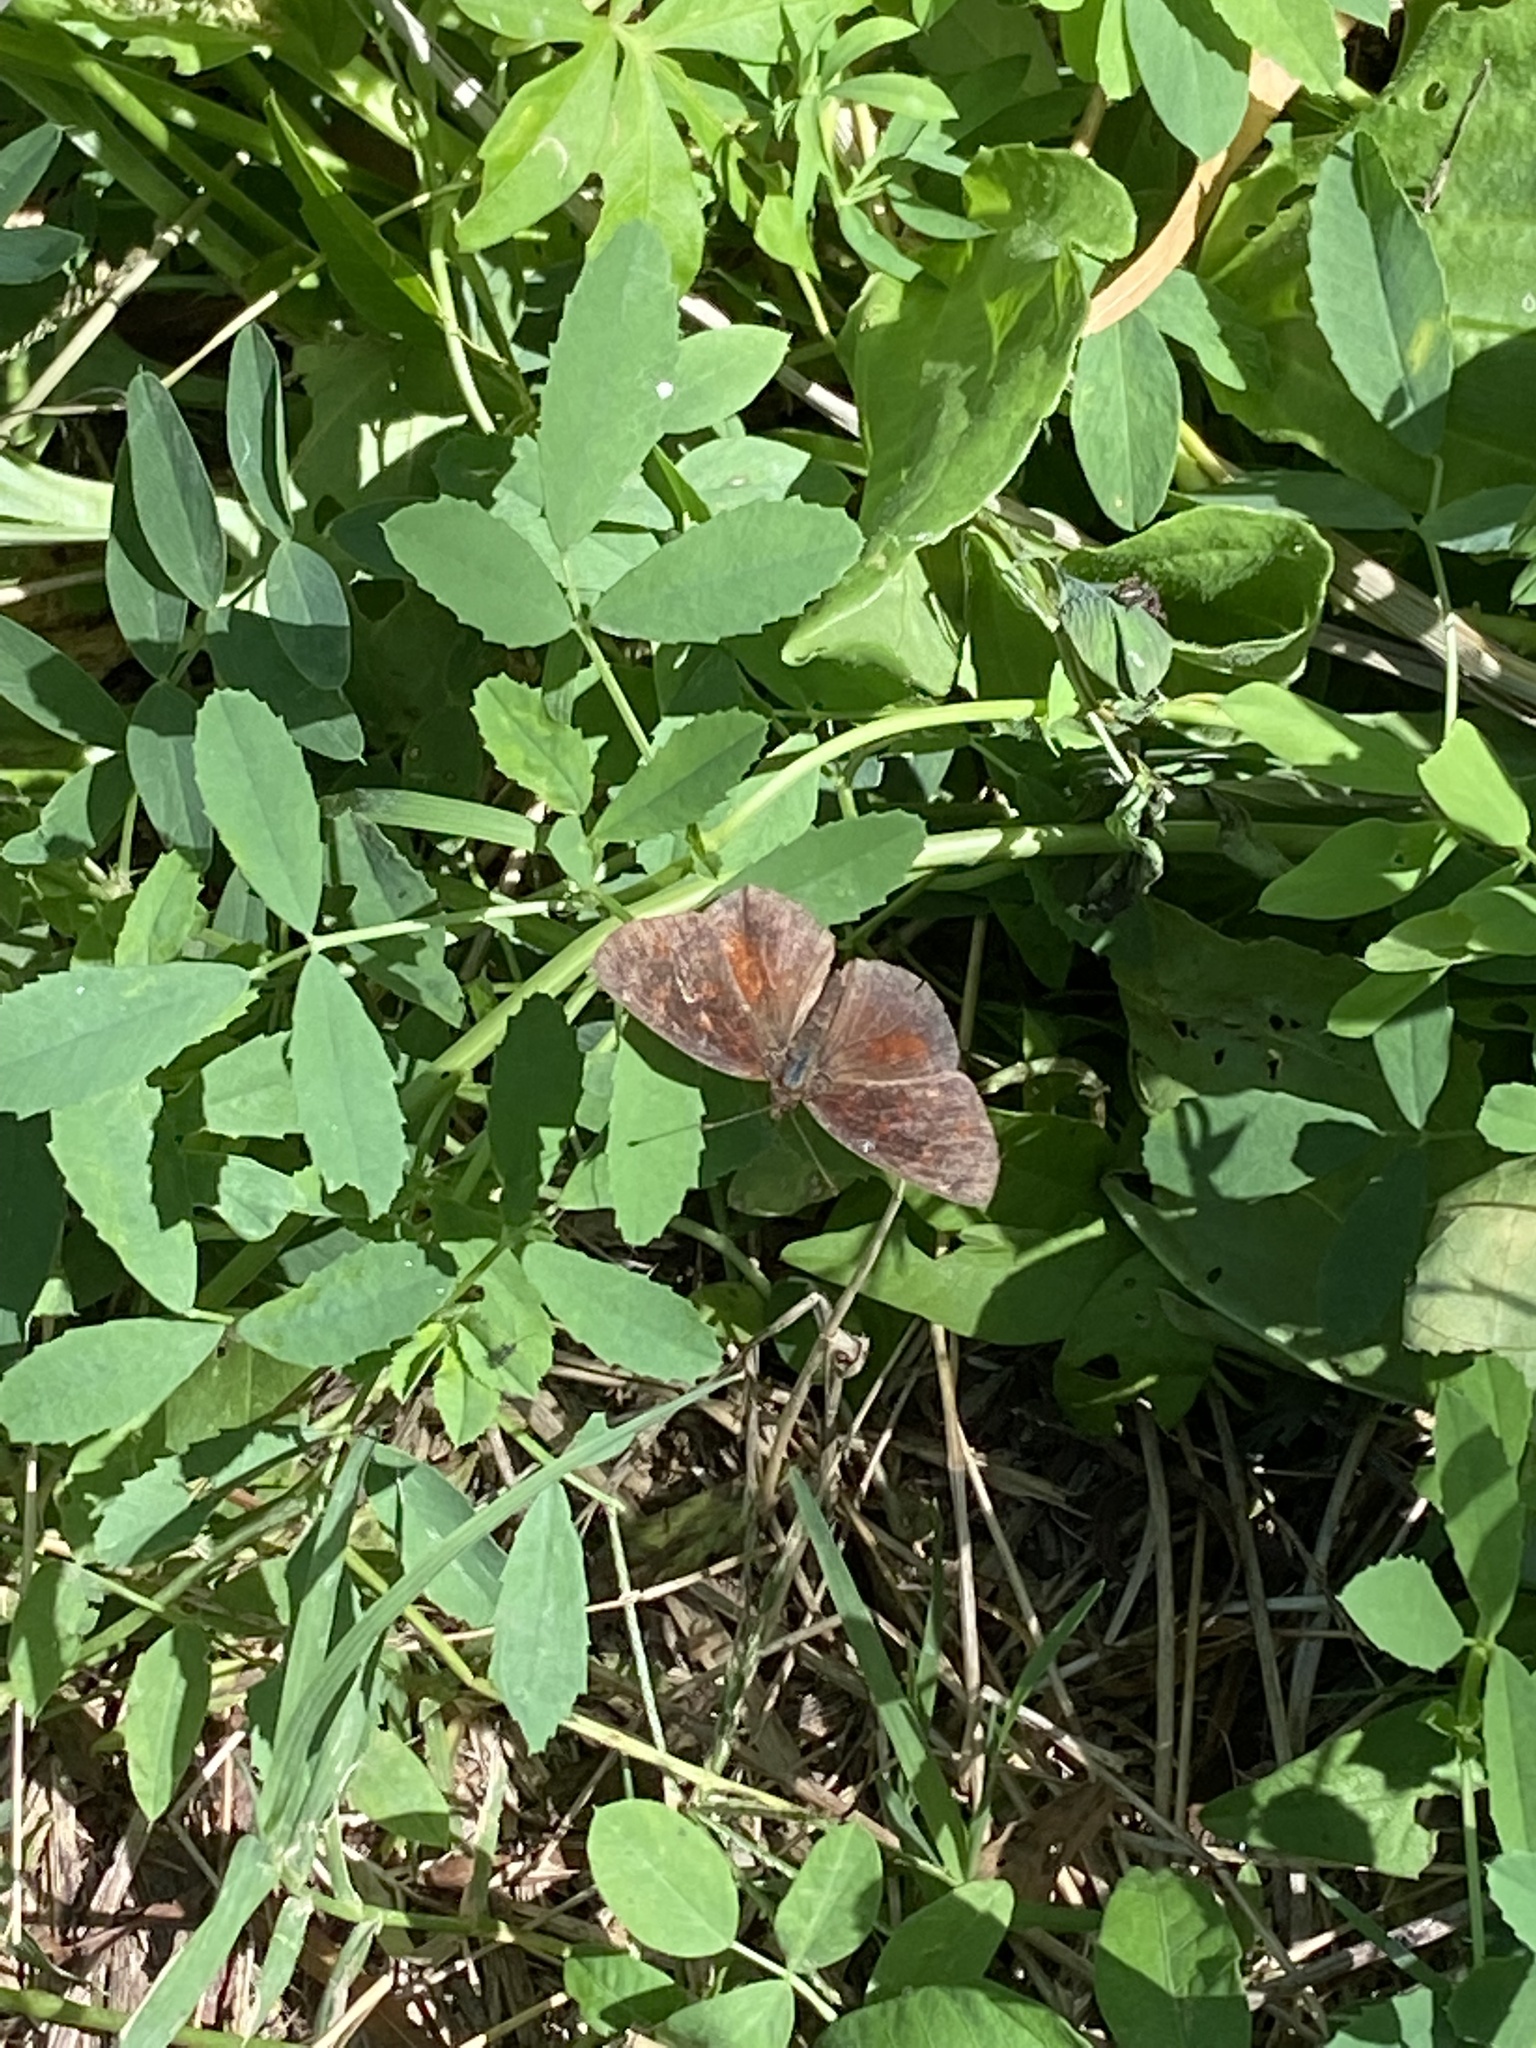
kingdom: Animalia
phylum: Arthropoda
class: Insecta
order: Lepidoptera
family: Nymphalidae
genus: Ortilia
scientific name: Ortilia velica
